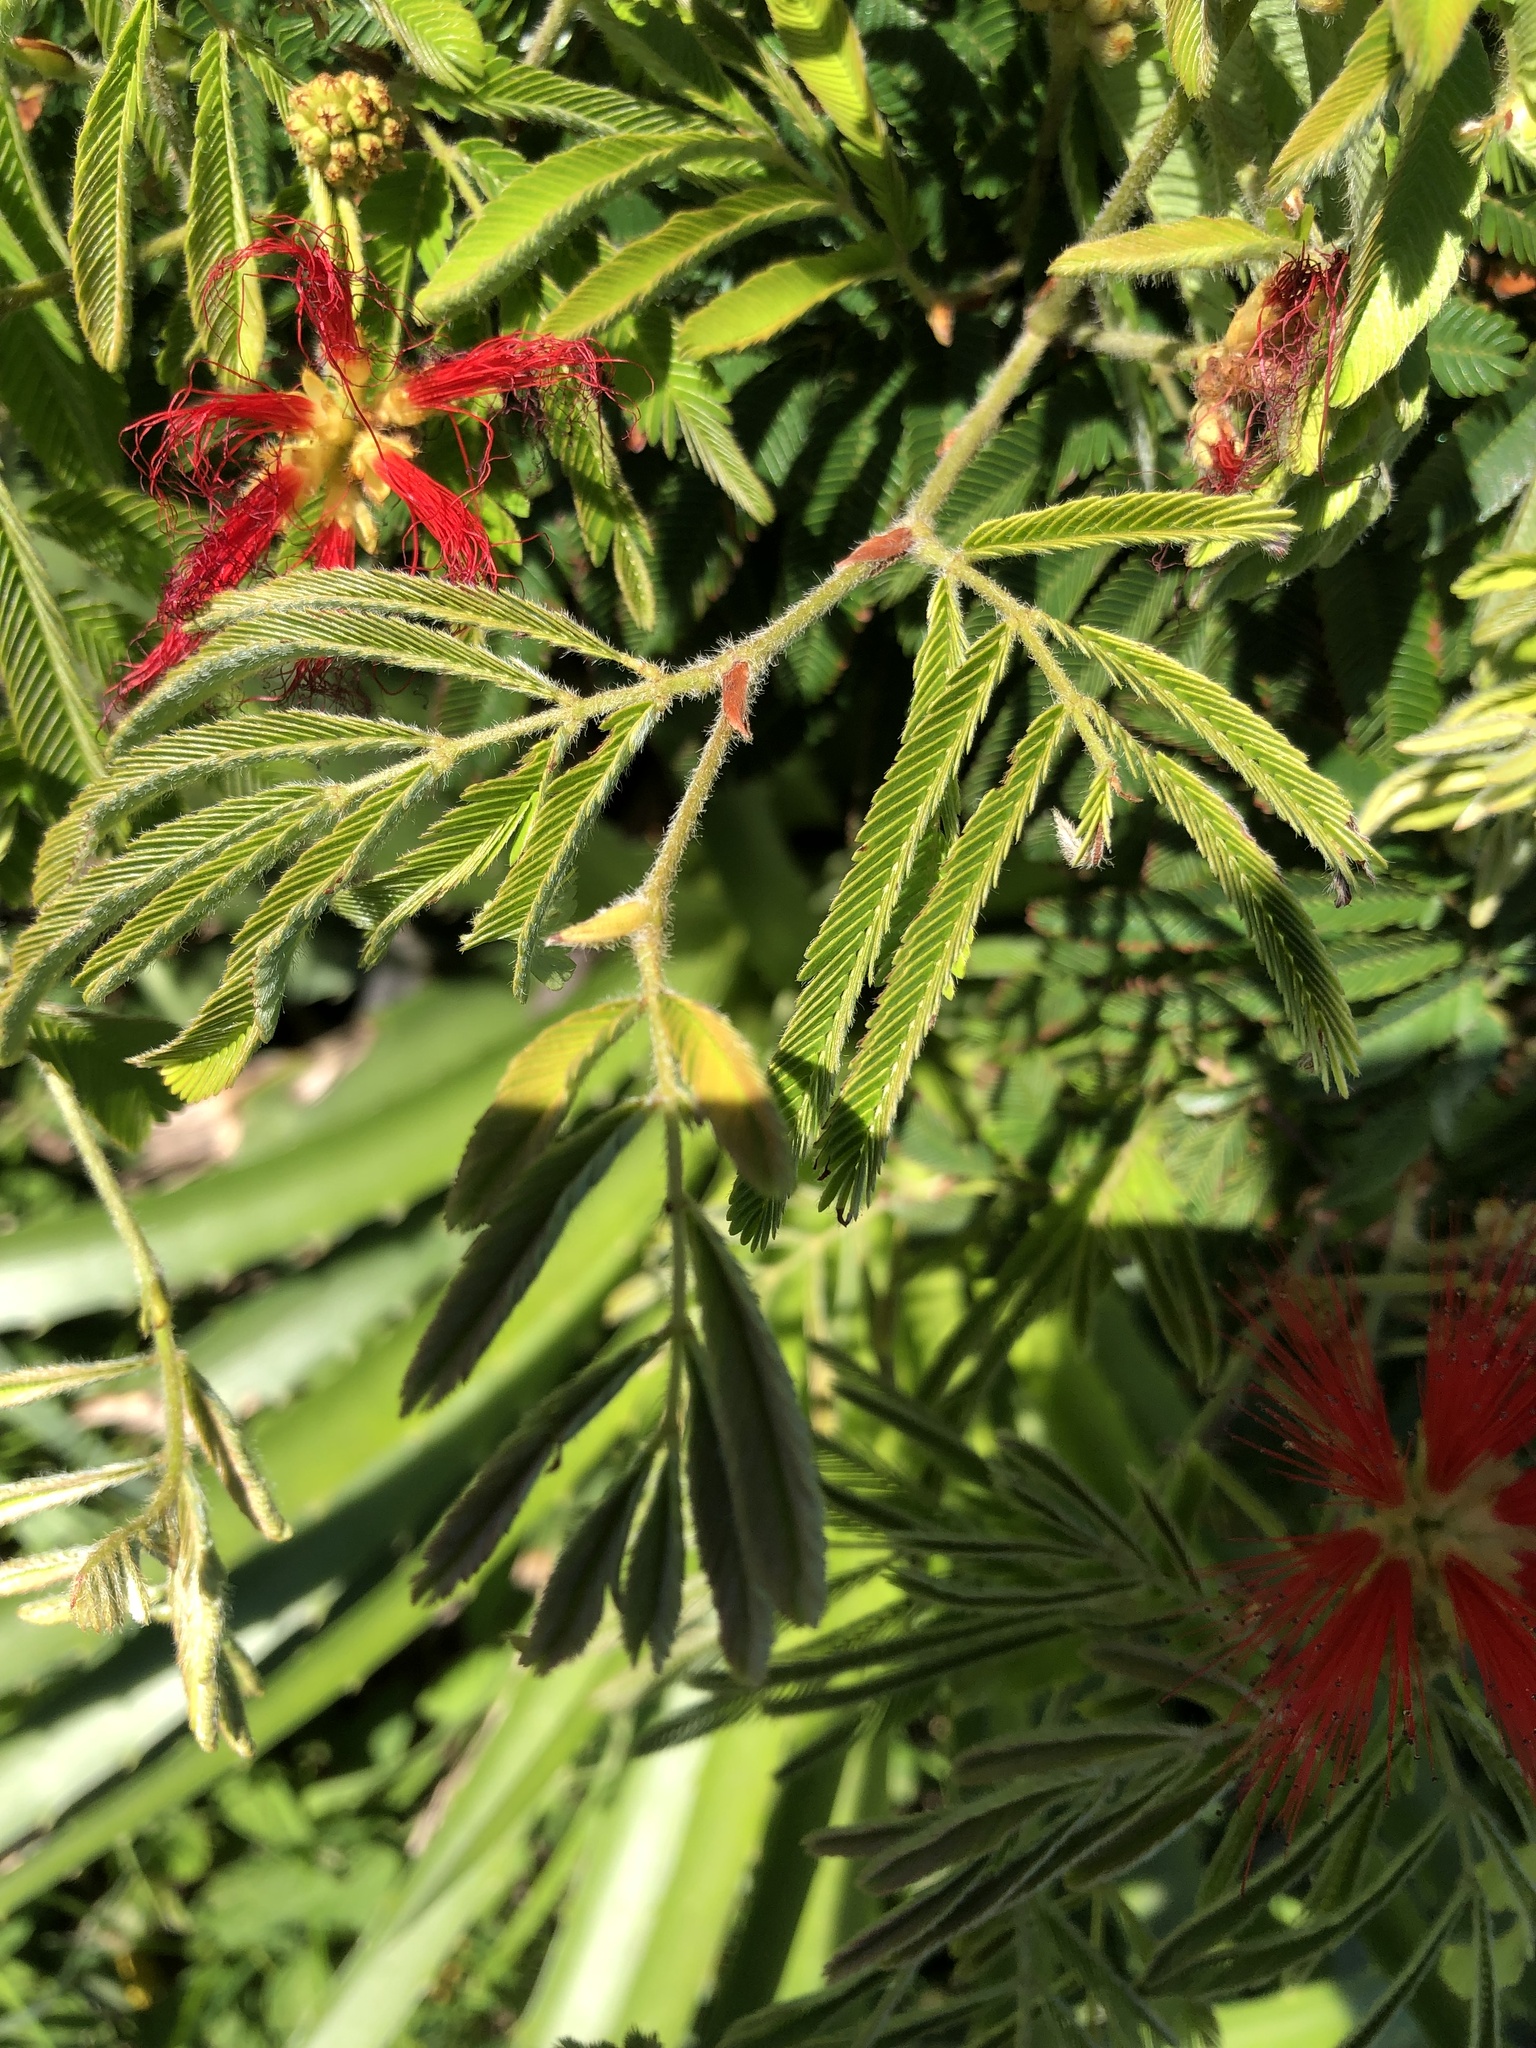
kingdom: Plantae
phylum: Tracheophyta
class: Magnoliopsida
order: Fabales
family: Fabaceae
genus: Calliandra
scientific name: Calliandra tweediei
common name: Mexican flamebush
